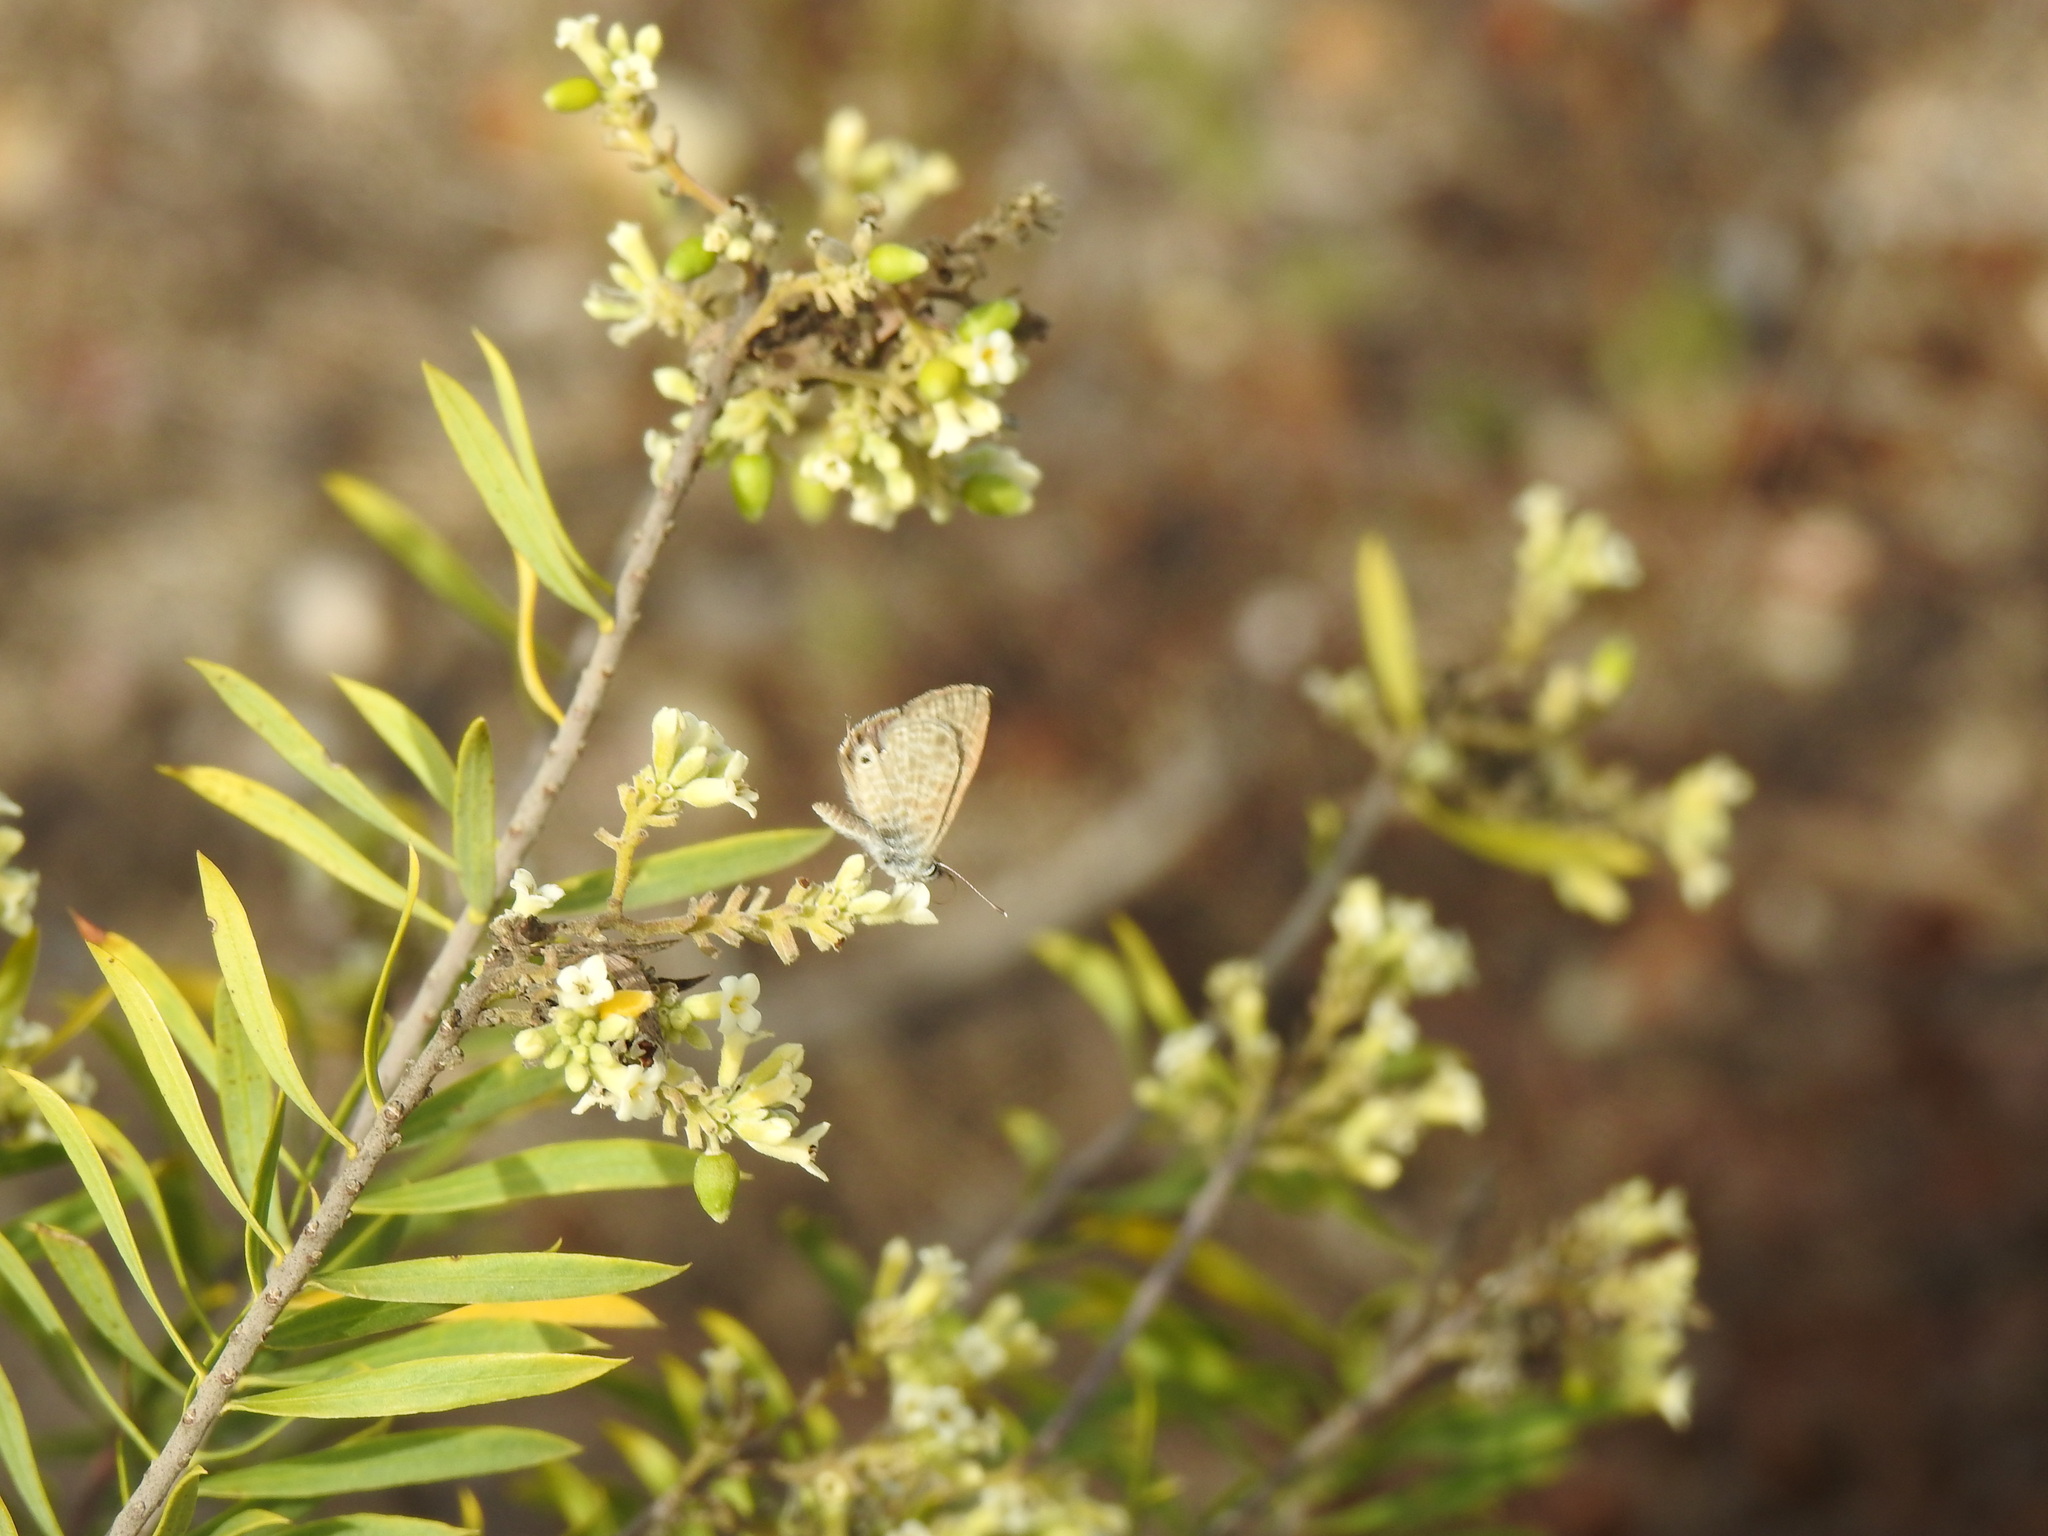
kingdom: Animalia
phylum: Arthropoda
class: Insecta
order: Lepidoptera
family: Lycaenidae
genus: Leptotes
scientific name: Leptotes pirithous
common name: Lang's short-tailed blue
